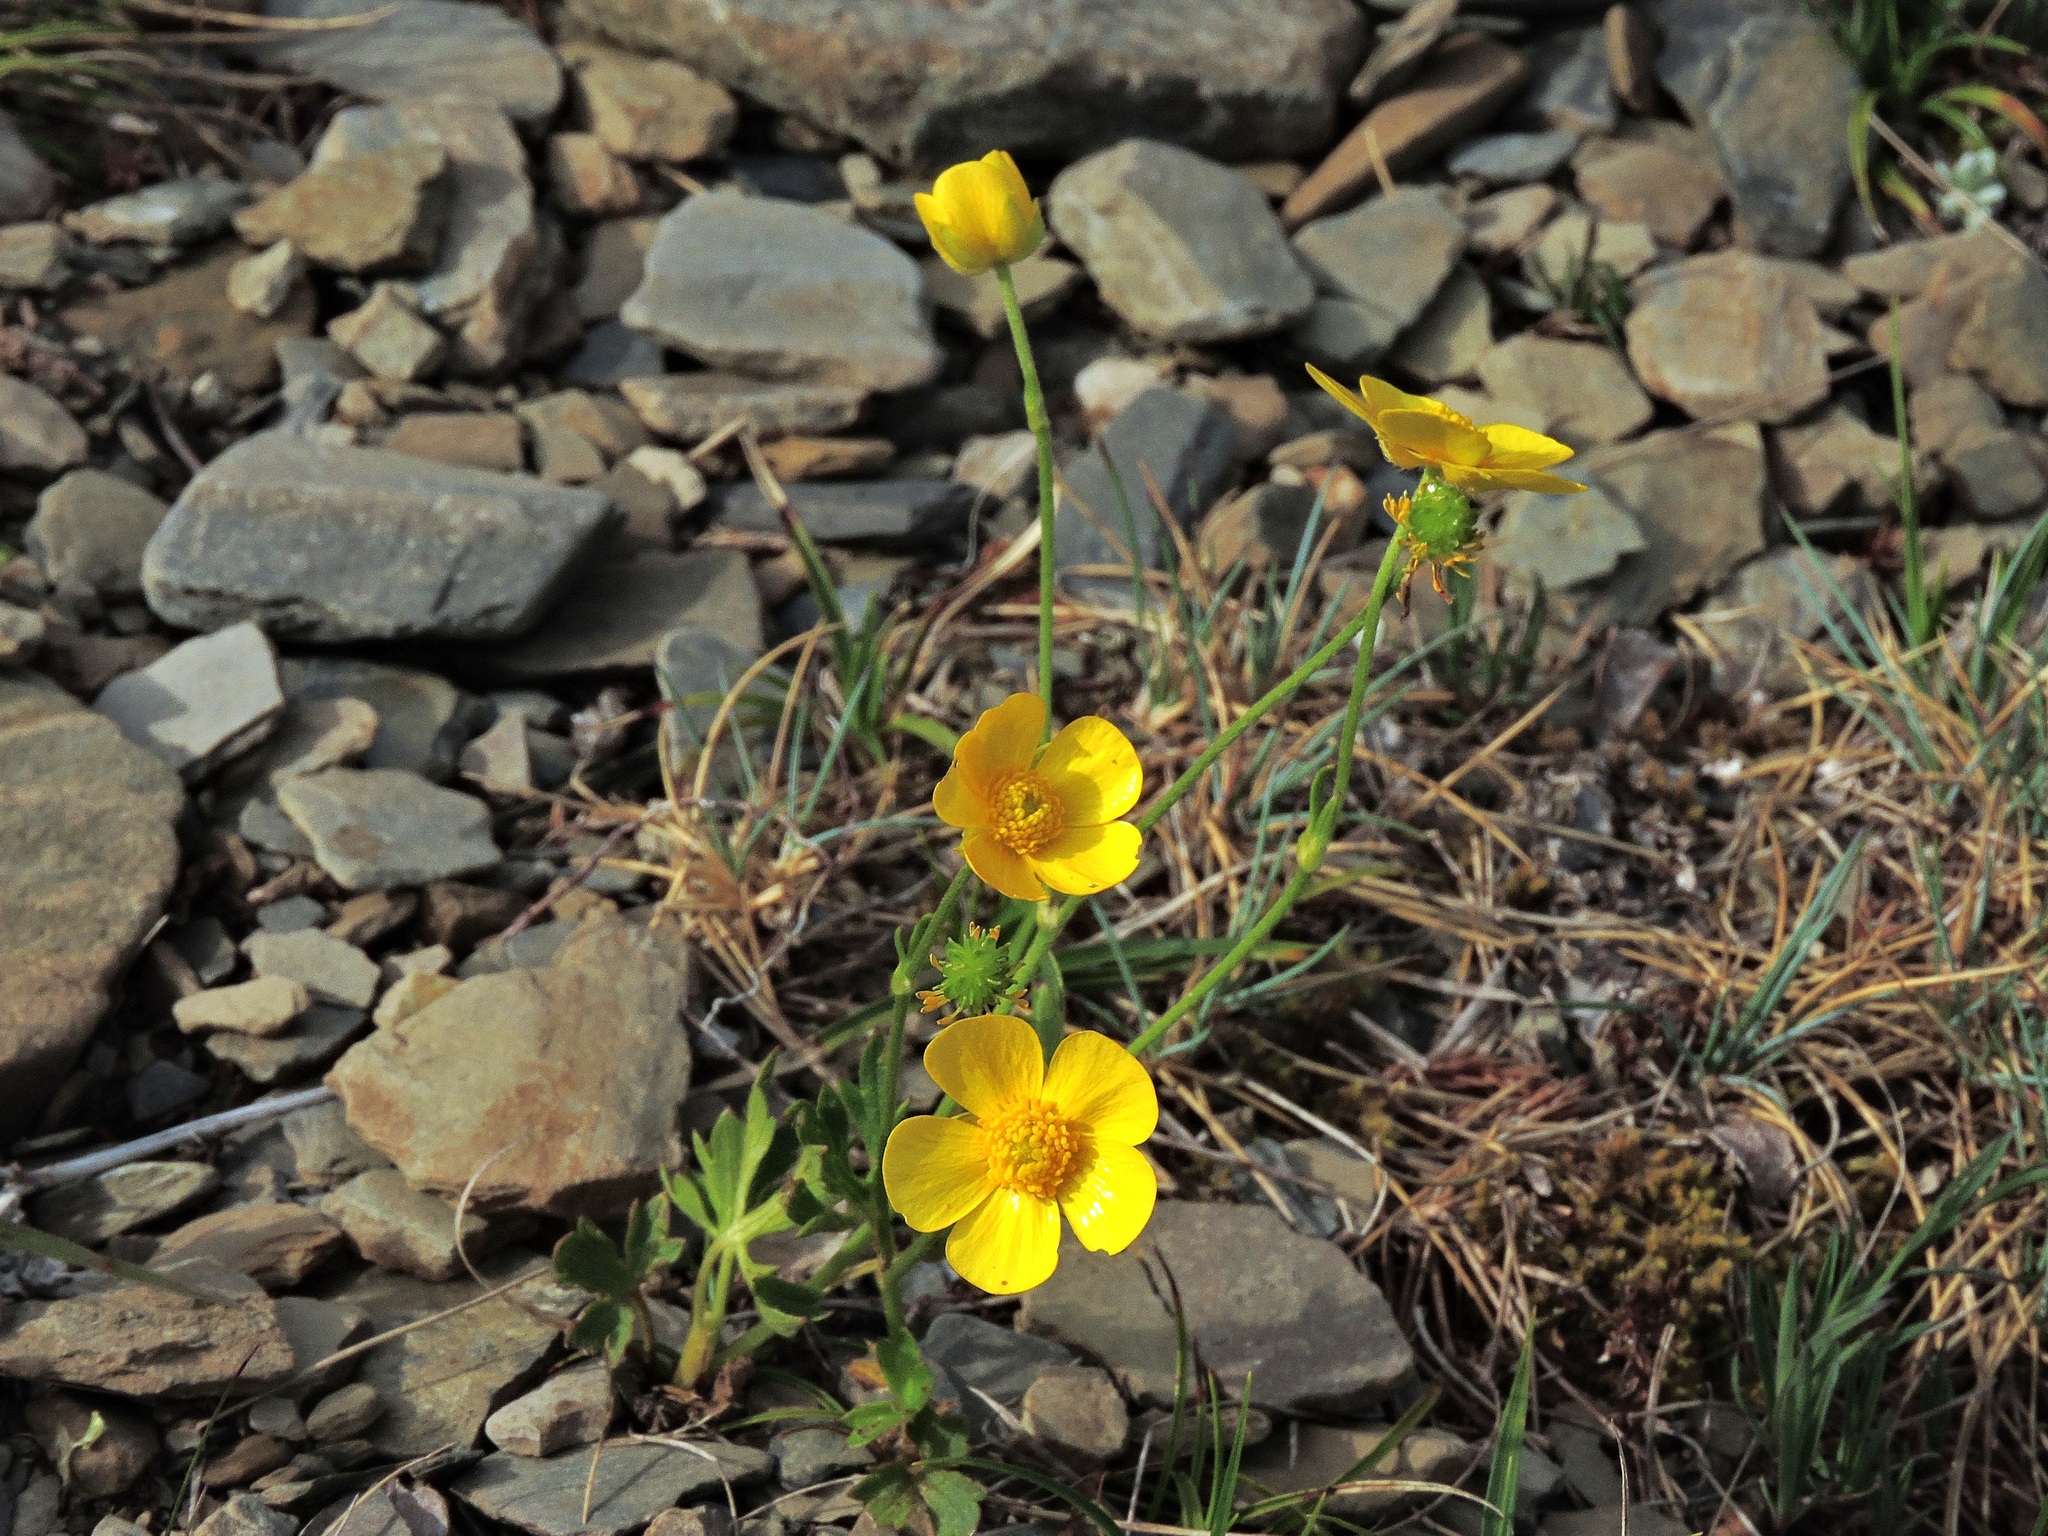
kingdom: Plantae
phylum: Tracheophyta
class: Magnoliopsida
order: Ranunculales
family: Ranunculaceae
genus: Ranunculus
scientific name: Ranunculus formosa-montanus
